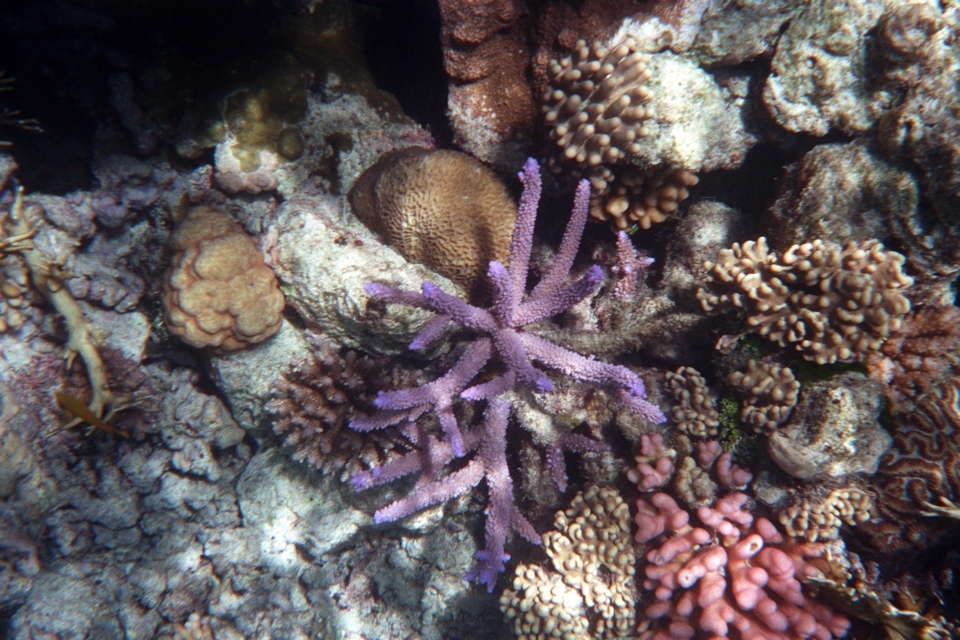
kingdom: Animalia
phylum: Cnidaria
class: Anthozoa
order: Scleractinia
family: Acroporidae
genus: Acropora
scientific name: Acropora muricata
